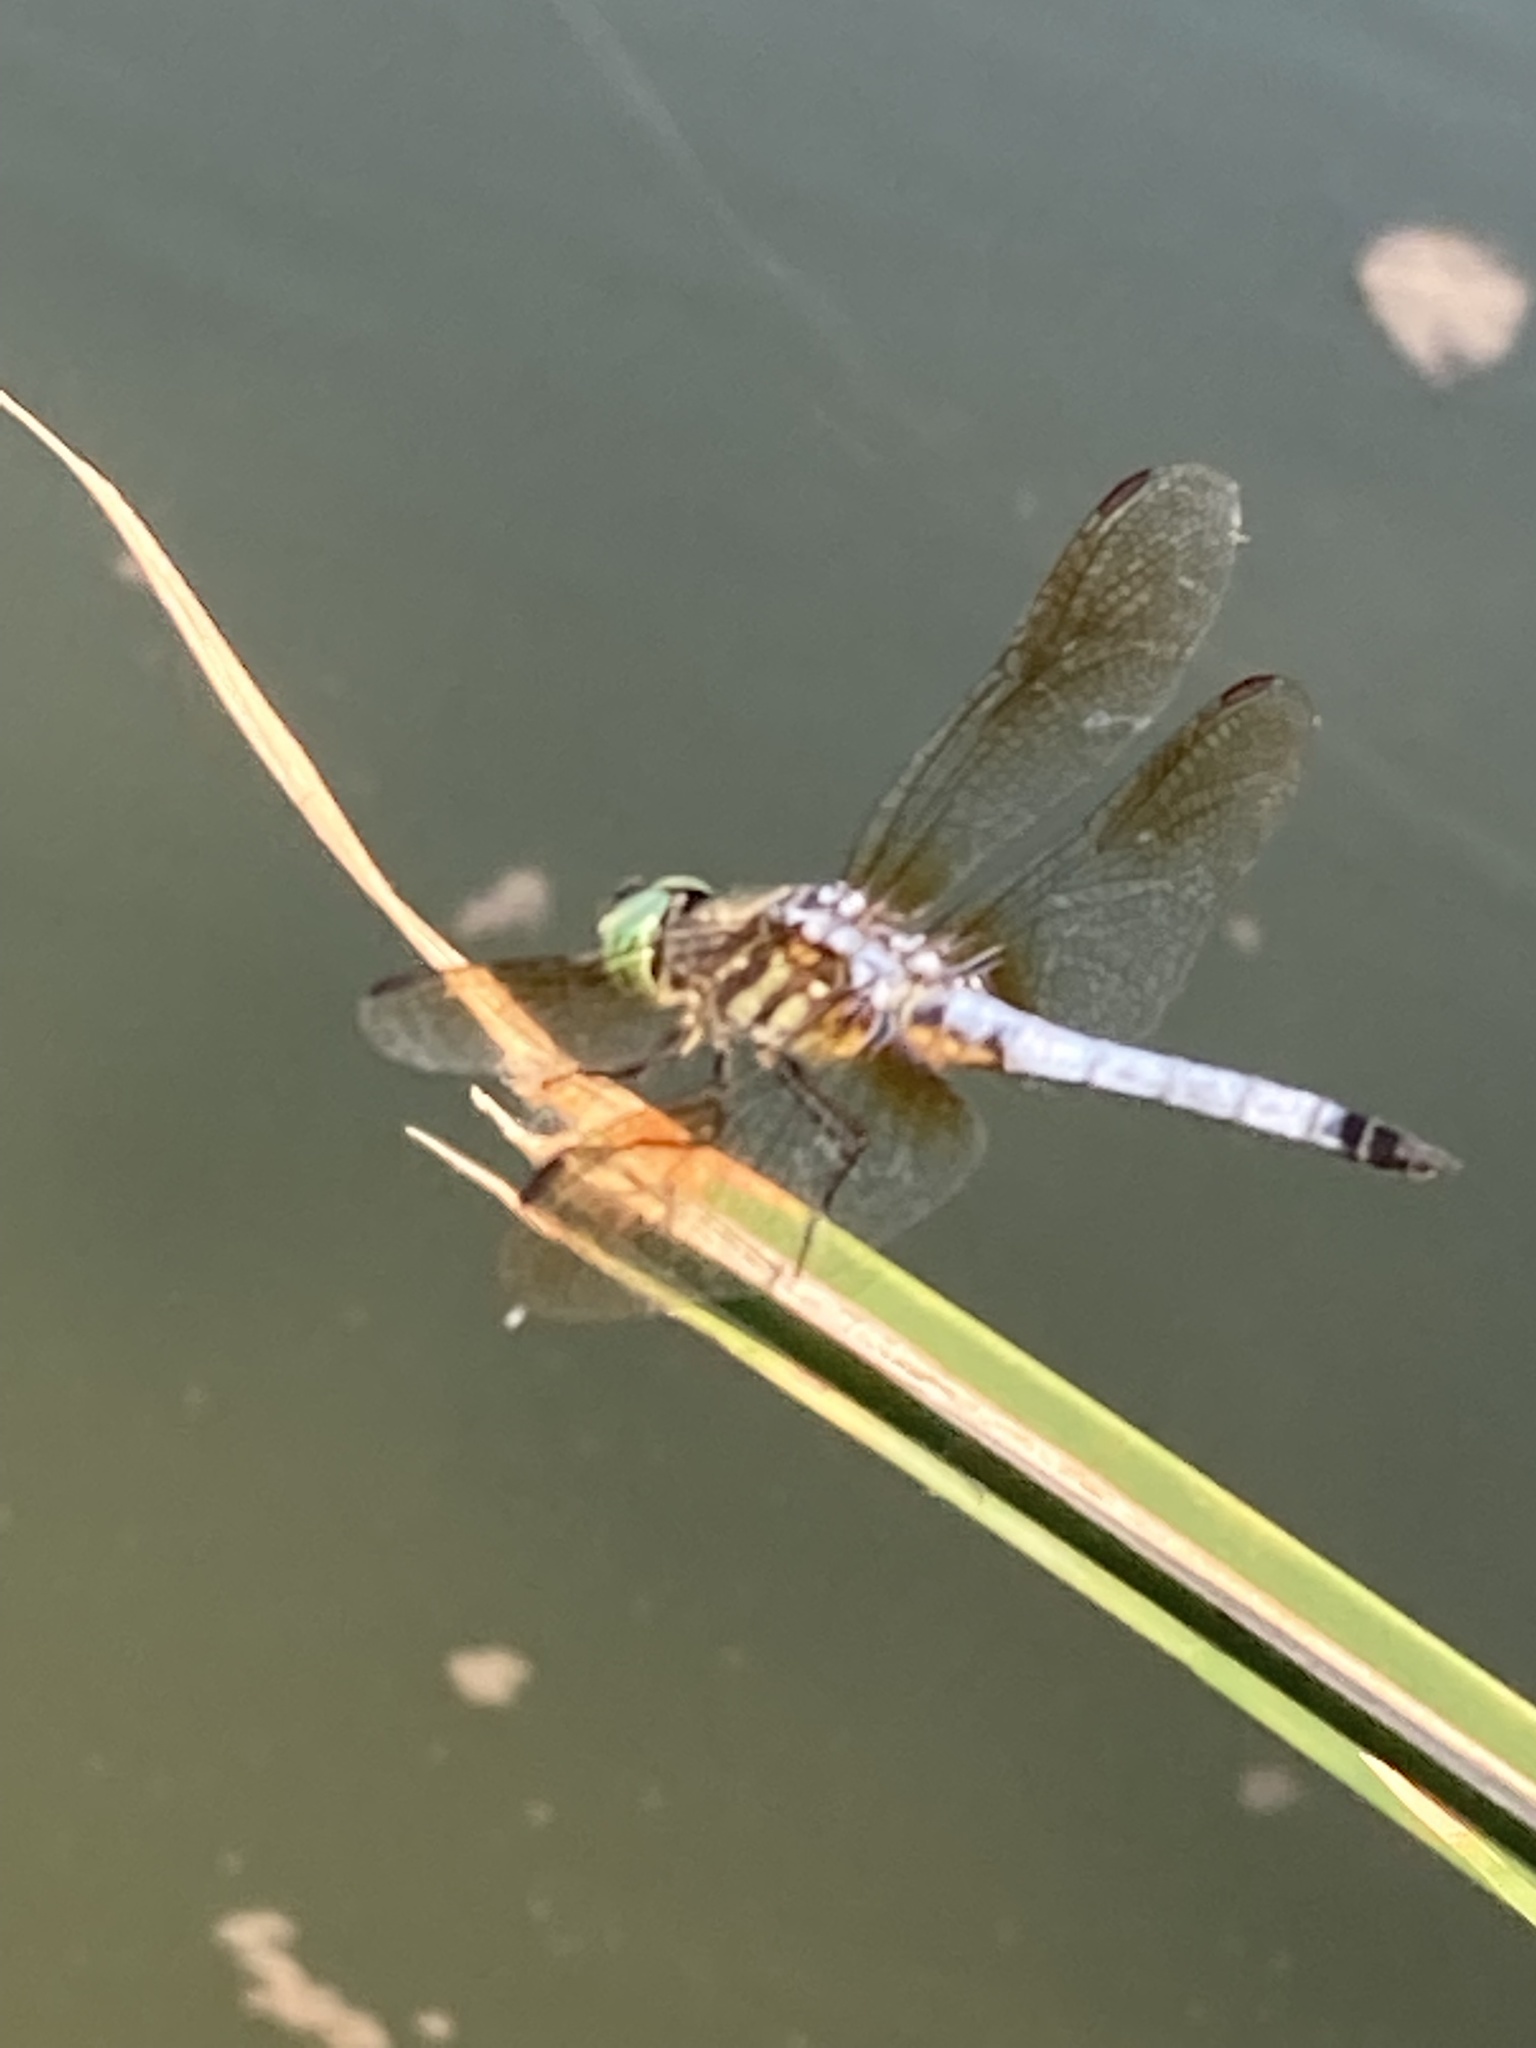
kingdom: Animalia
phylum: Arthropoda
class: Insecta
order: Odonata
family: Libellulidae
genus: Pachydiplax
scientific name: Pachydiplax longipennis
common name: Blue dasher
